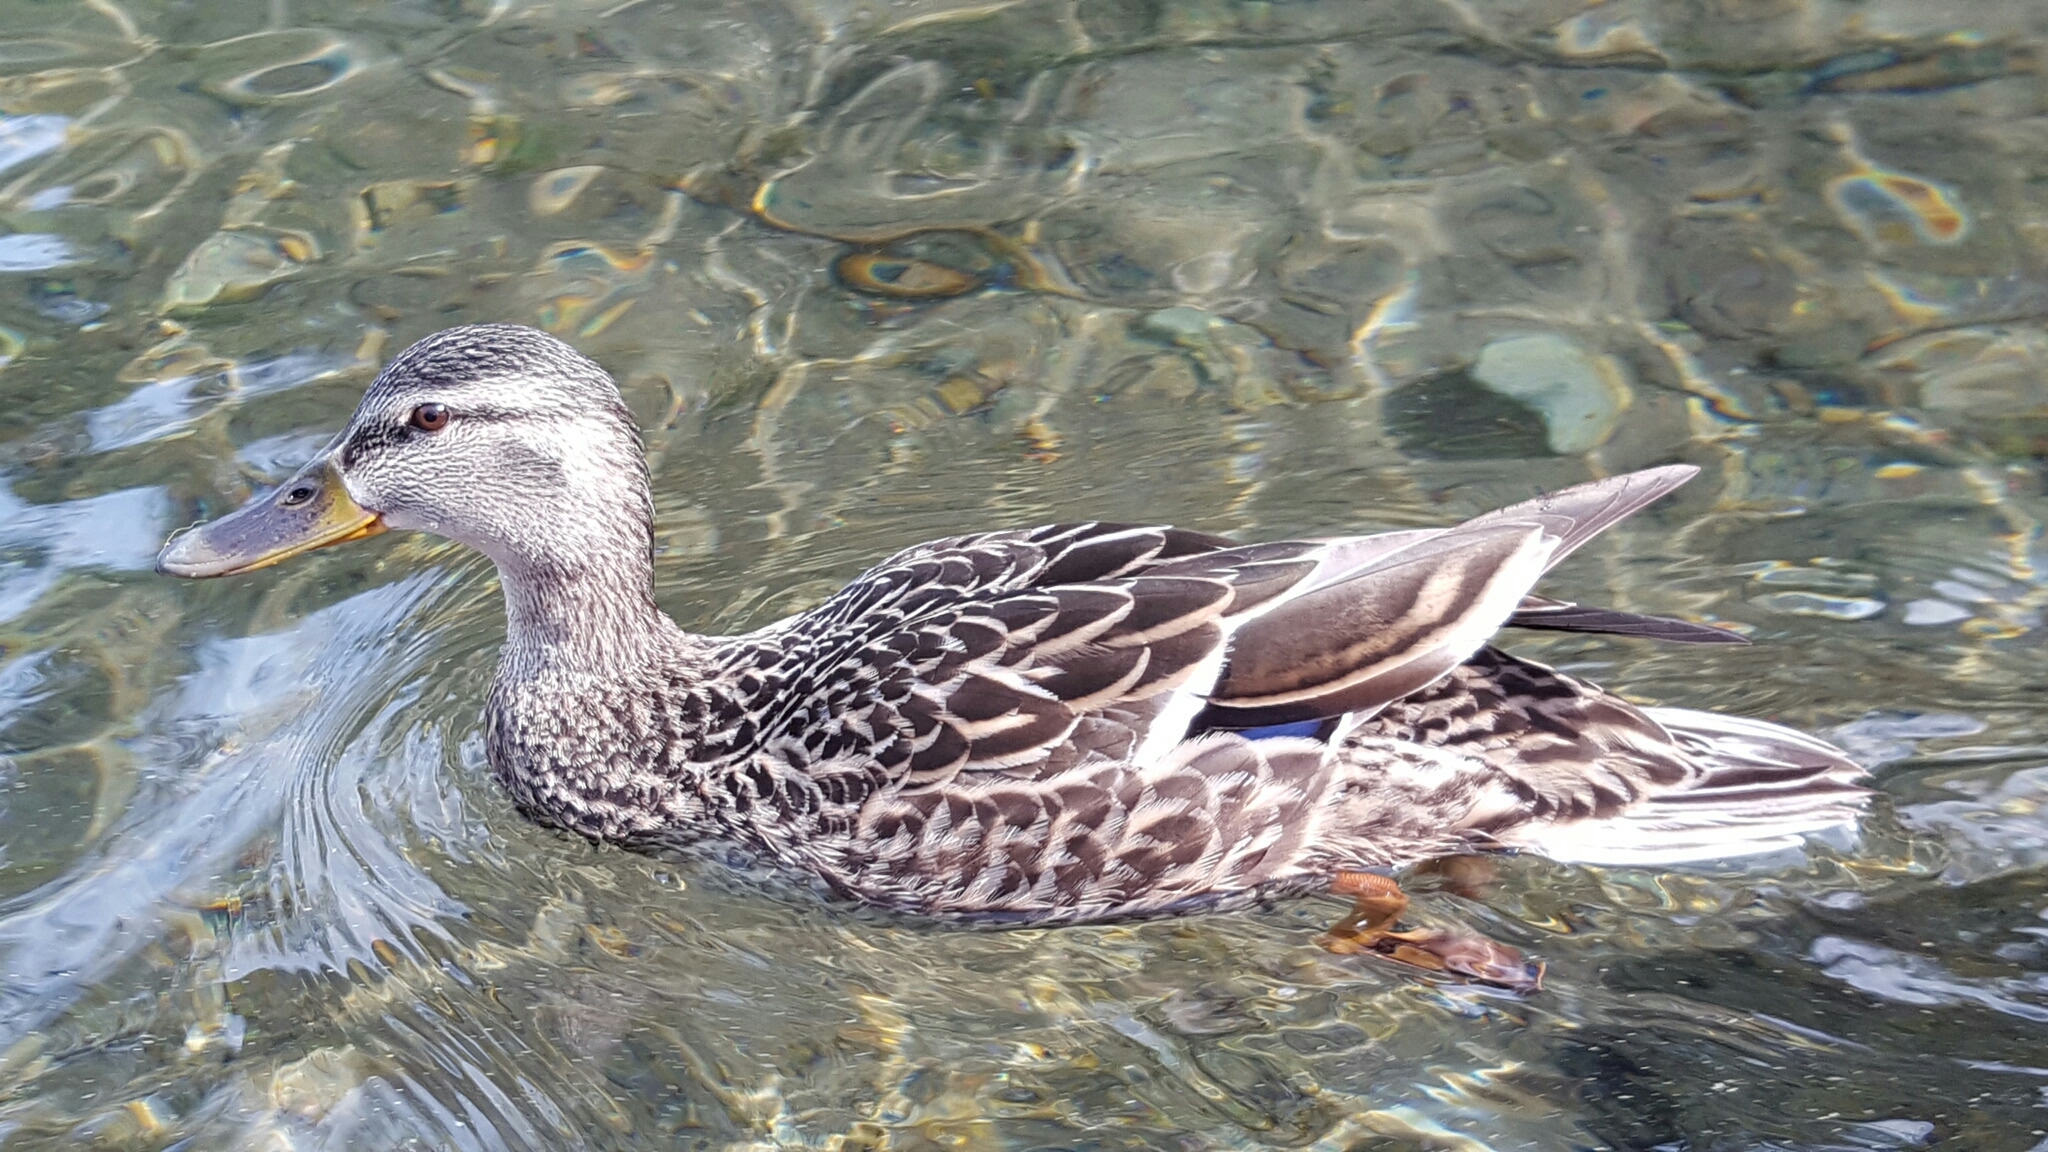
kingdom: Animalia
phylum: Chordata
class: Aves
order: Anseriformes
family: Anatidae
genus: Anas
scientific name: Anas platyrhynchos
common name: Mallard
